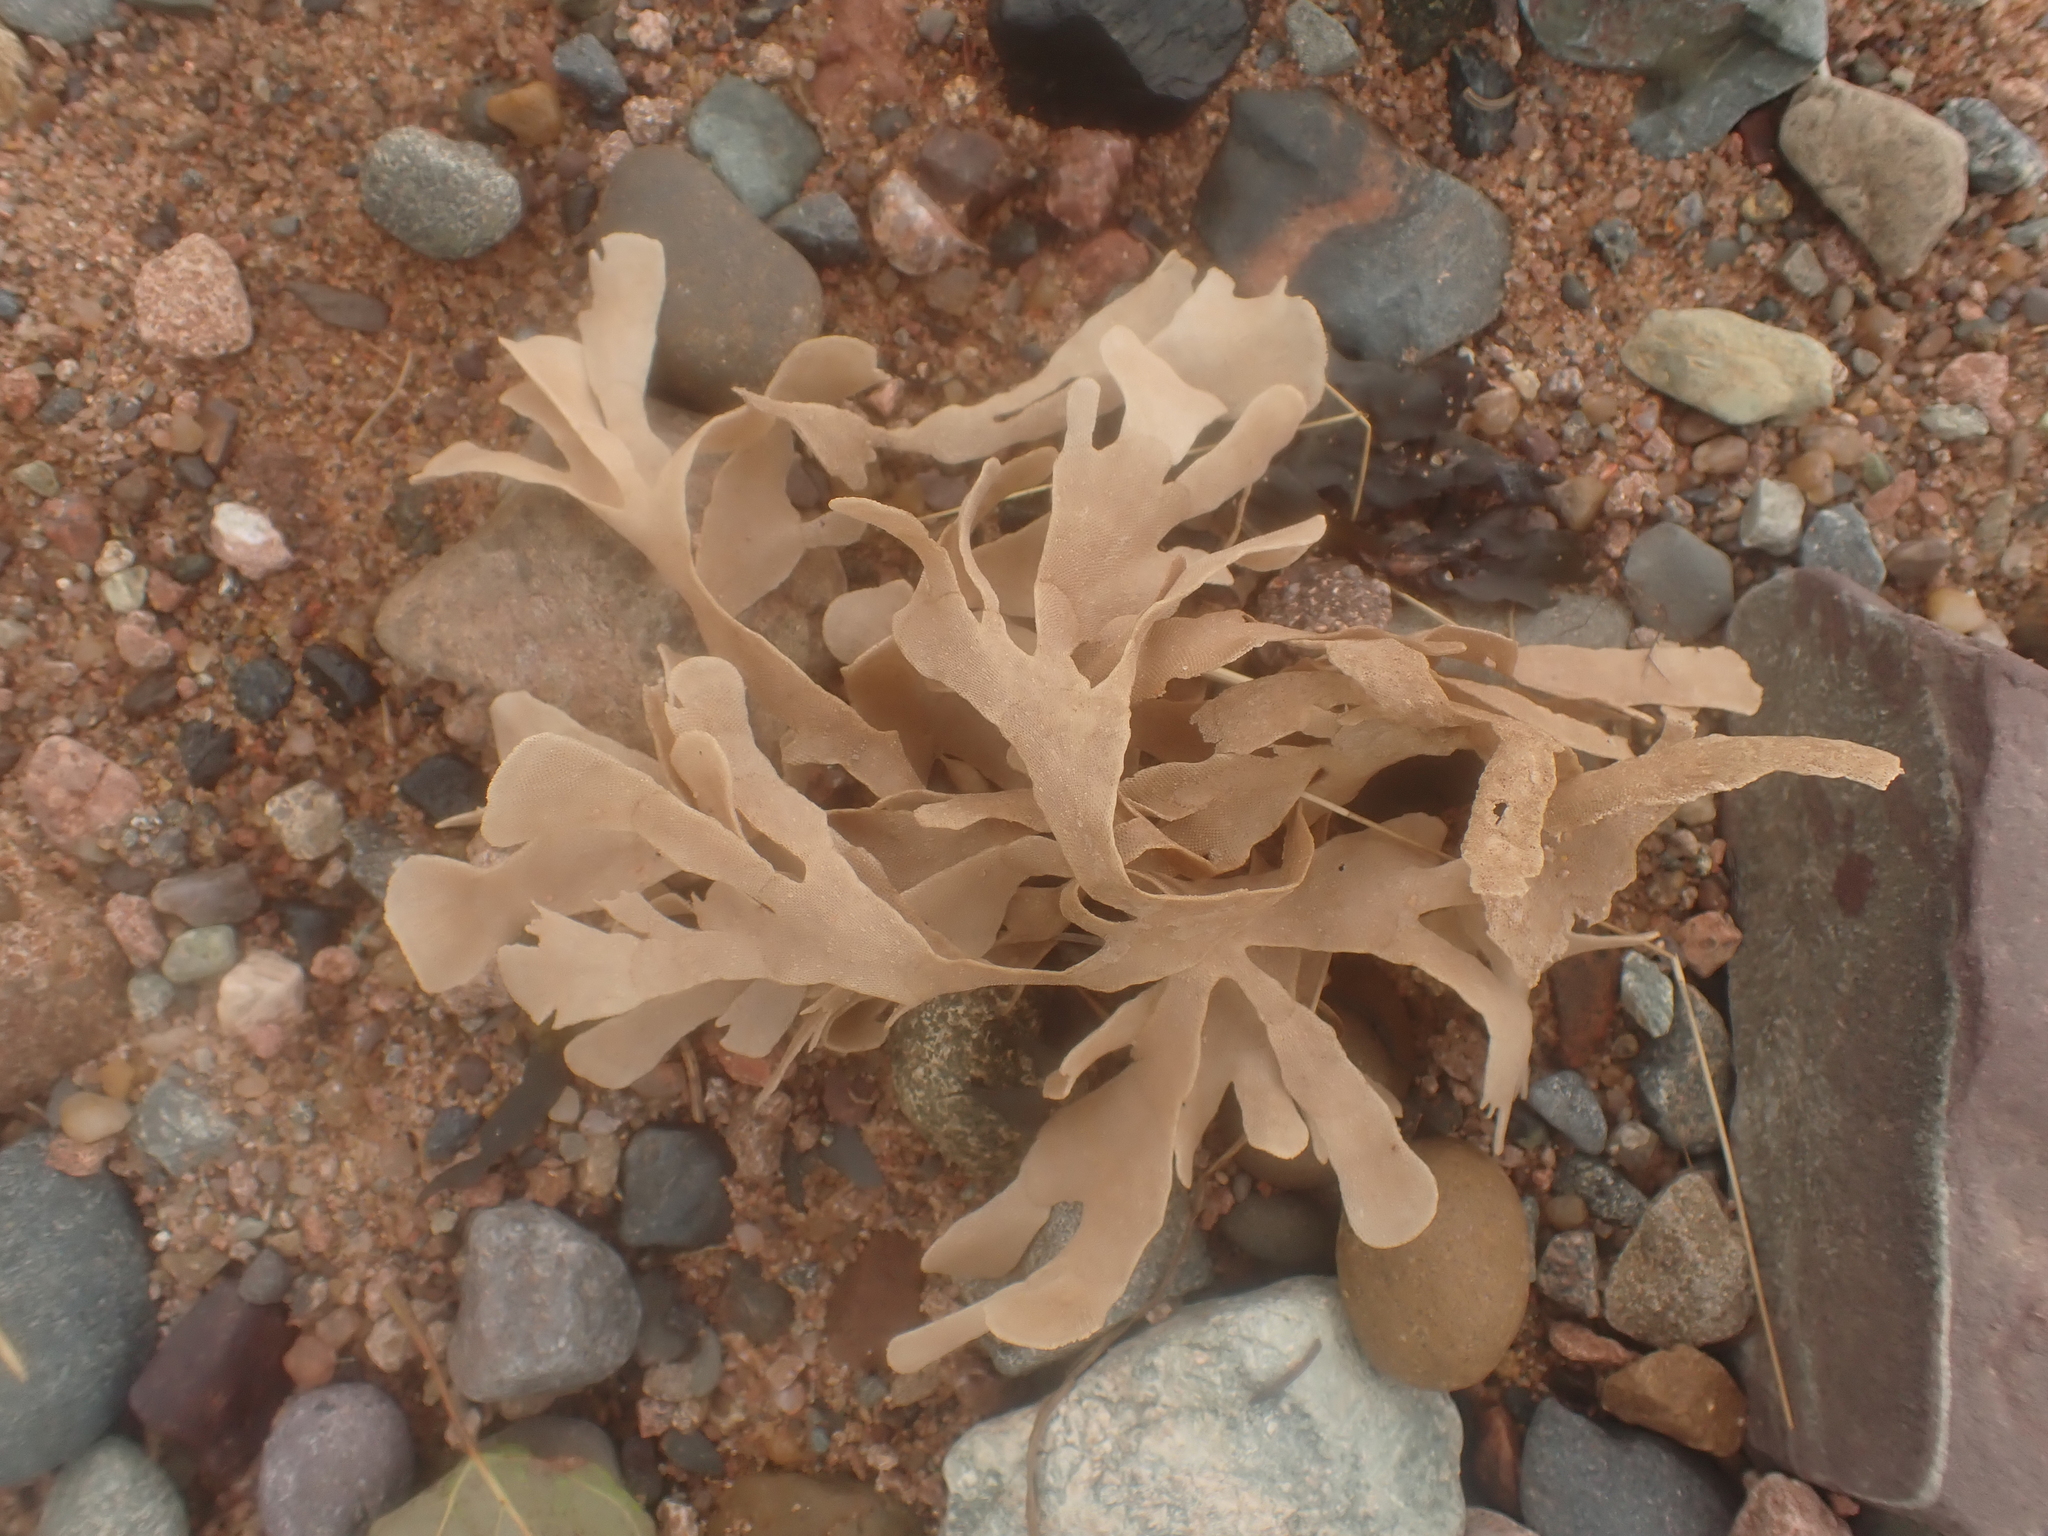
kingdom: Animalia
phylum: Bryozoa
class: Gymnolaemata
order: Cheilostomatida
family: Flustridae
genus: Flustra
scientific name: Flustra foliacea
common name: Hornwrack
